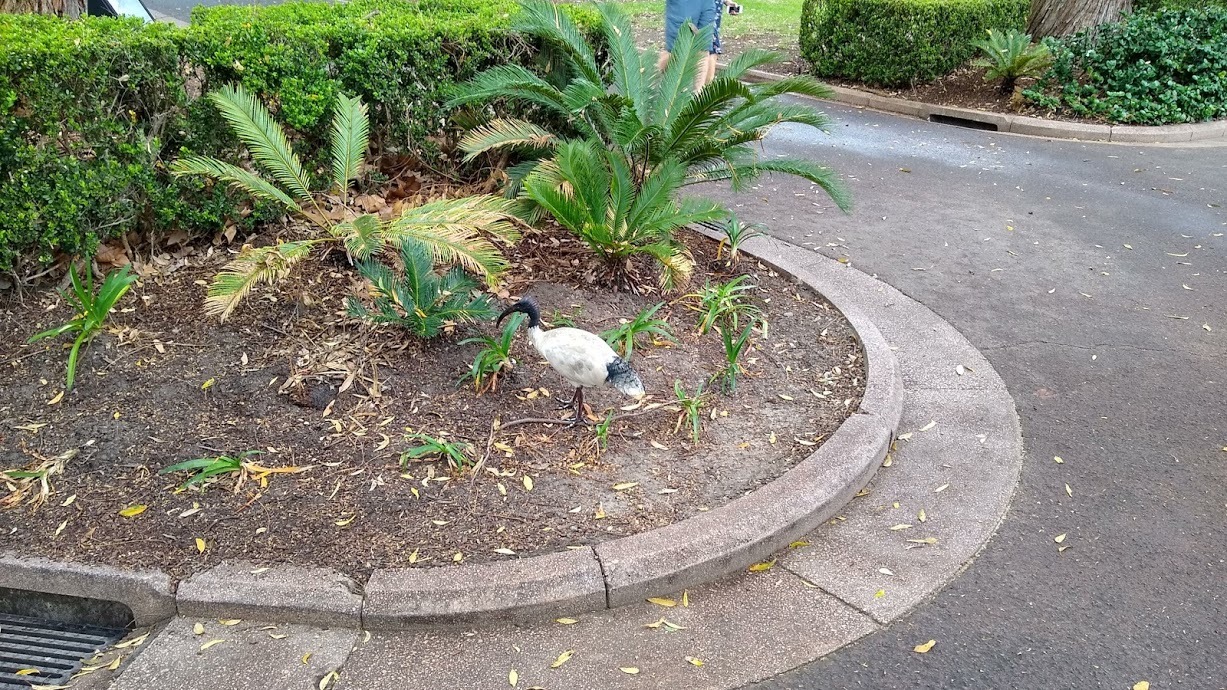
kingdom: Animalia
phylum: Chordata
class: Aves
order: Pelecaniformes
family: Threskiornithidae
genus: Threskiornis
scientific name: Threskiornis molucca
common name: Australian white ibis
